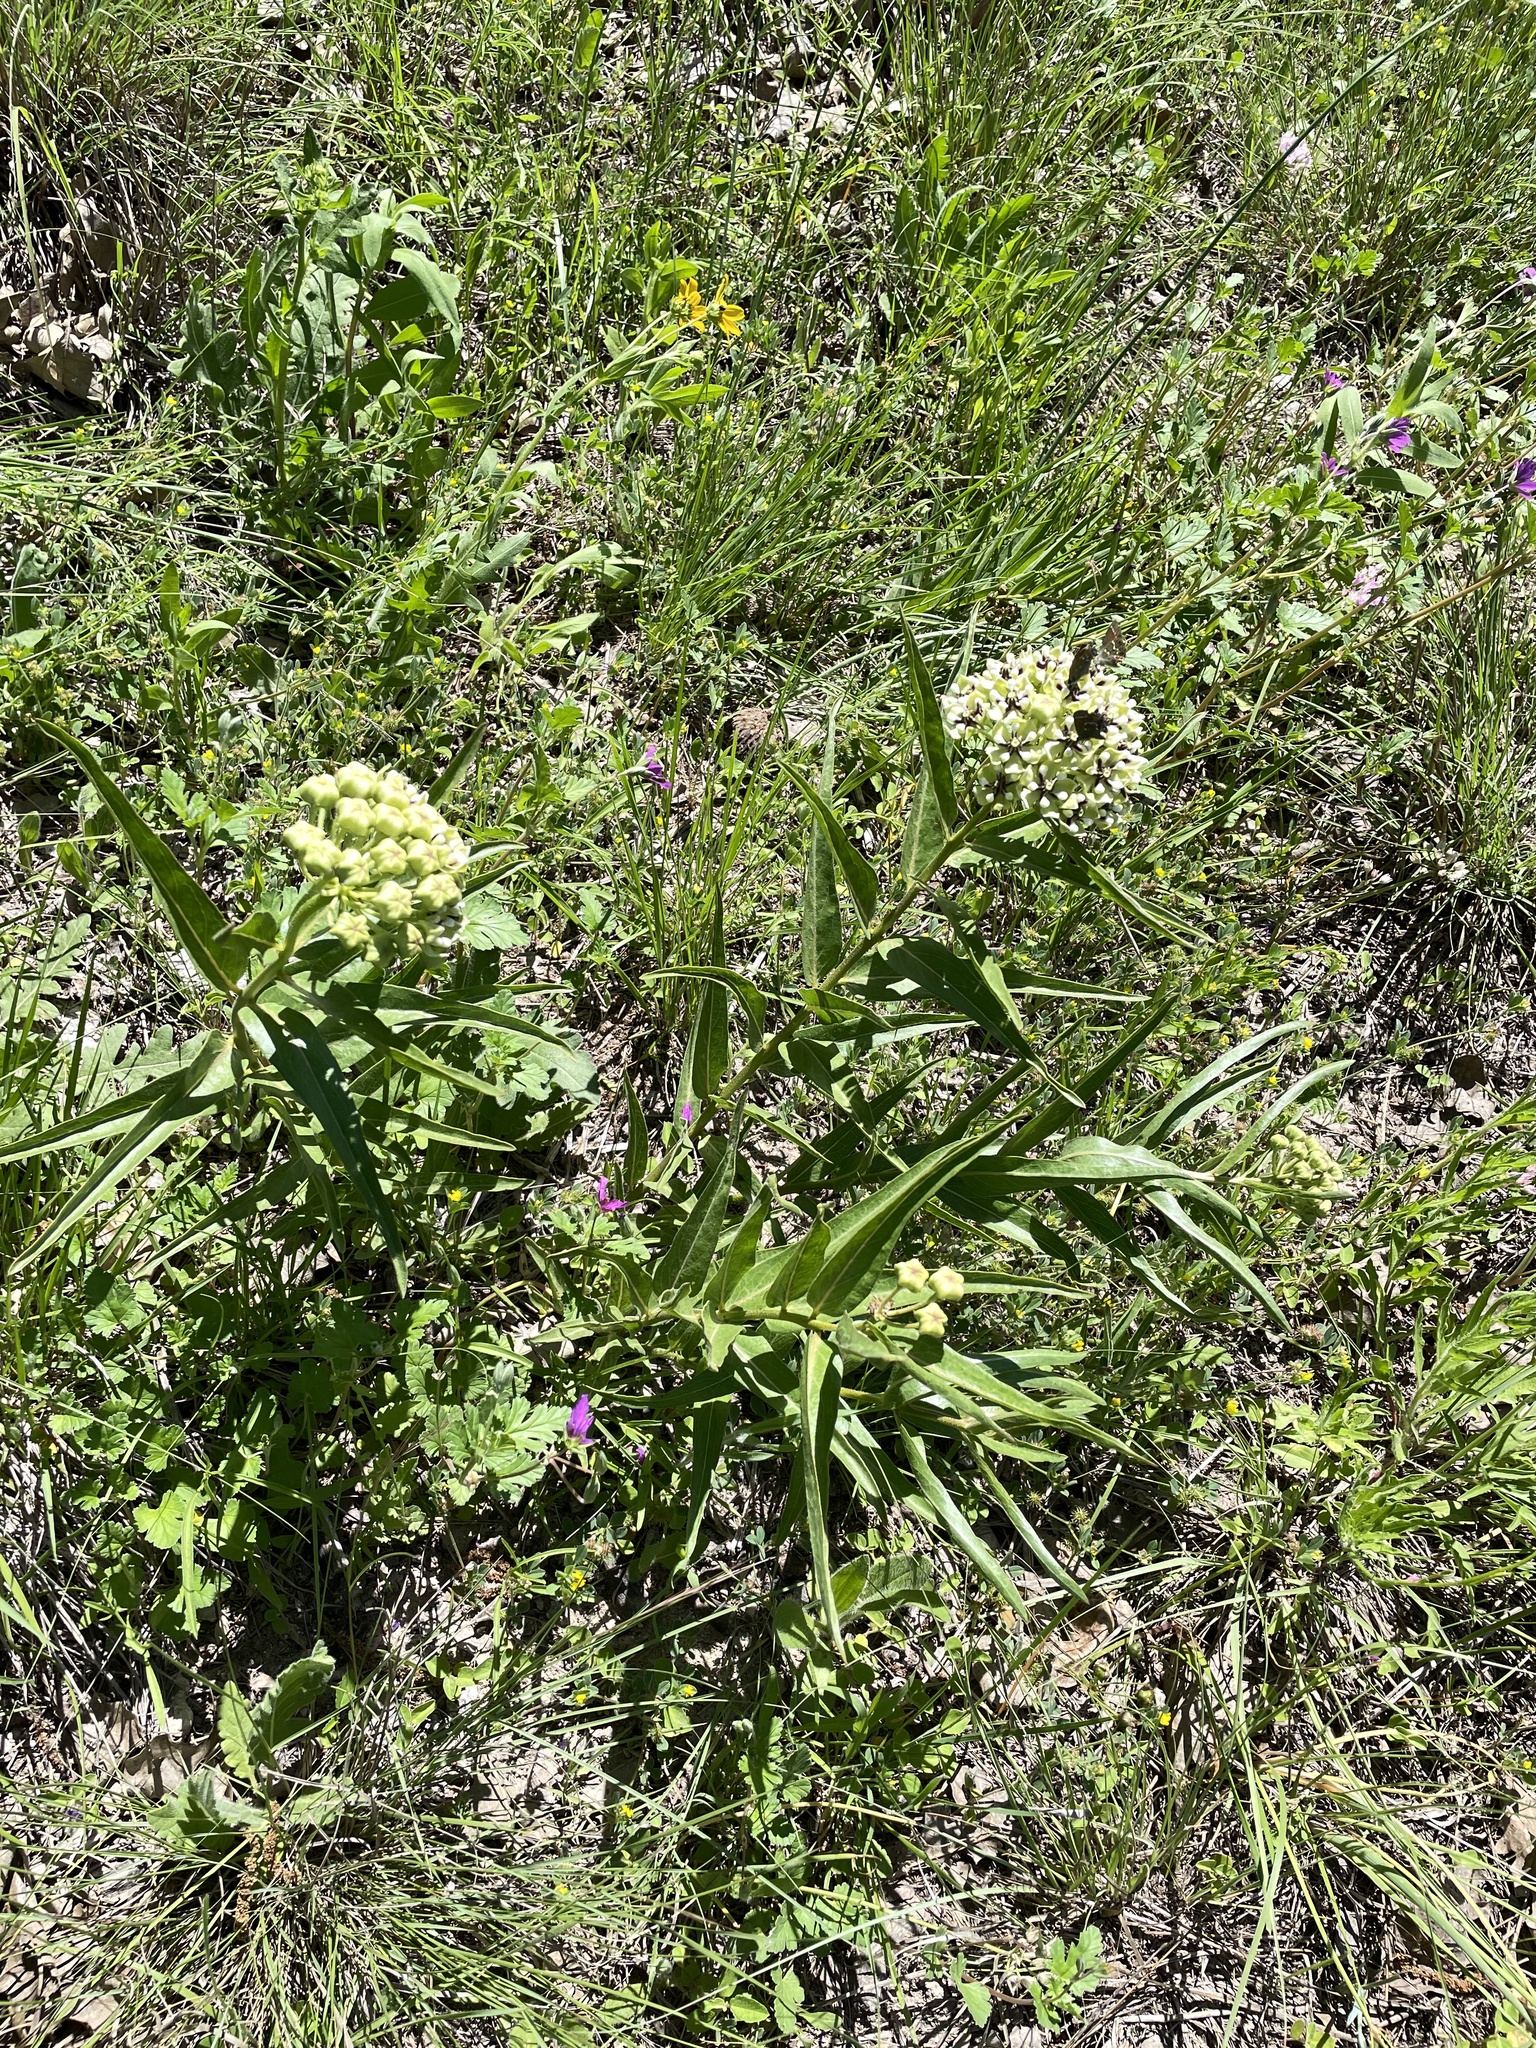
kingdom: Plantae
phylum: Tracheophyta
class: Magnoliopsida
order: Gentianales
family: Apocynaceae
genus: Asclepias
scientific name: Asclepias asperula
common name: Antelope horns
